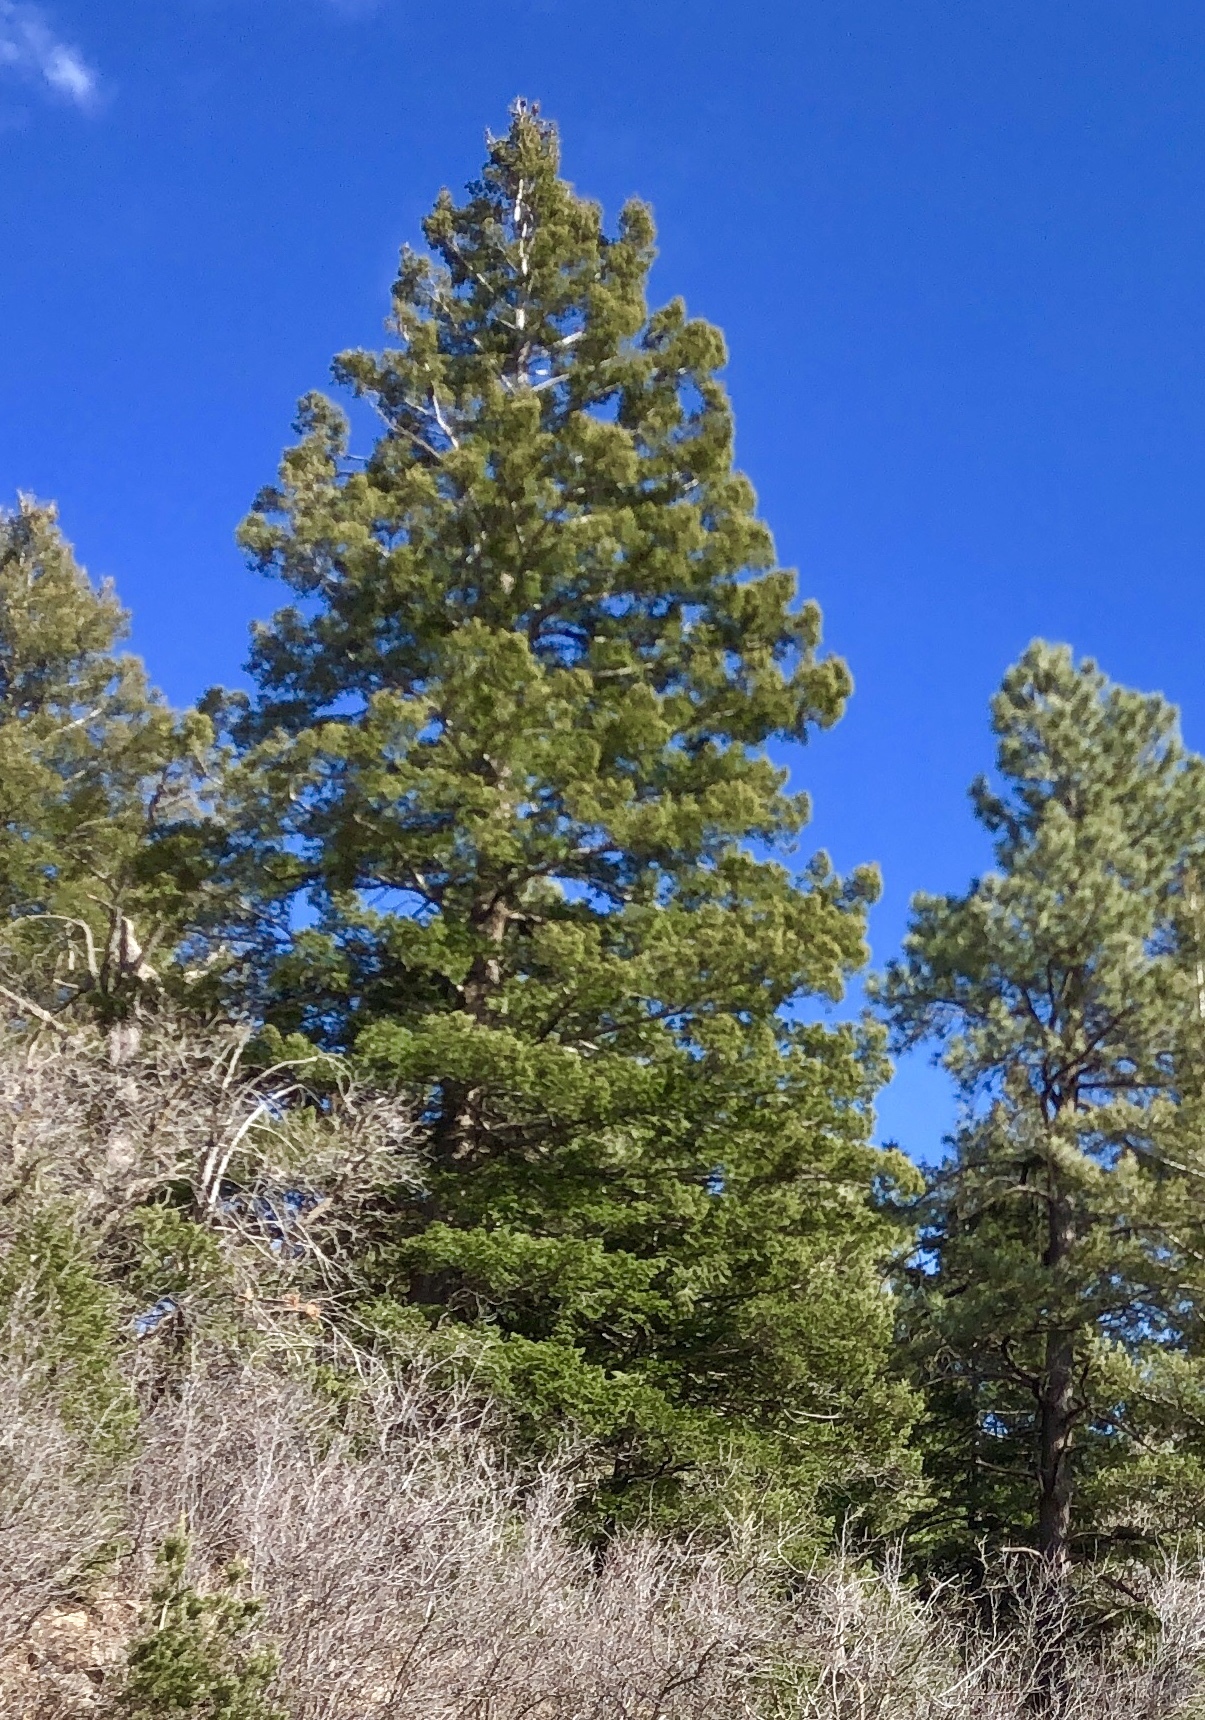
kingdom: Plantae
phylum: Tracheophyta
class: Pinopsida
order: Pinales
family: Pinaceae
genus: Pinus
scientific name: Pinus ponderosa
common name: Western yellow-pine
